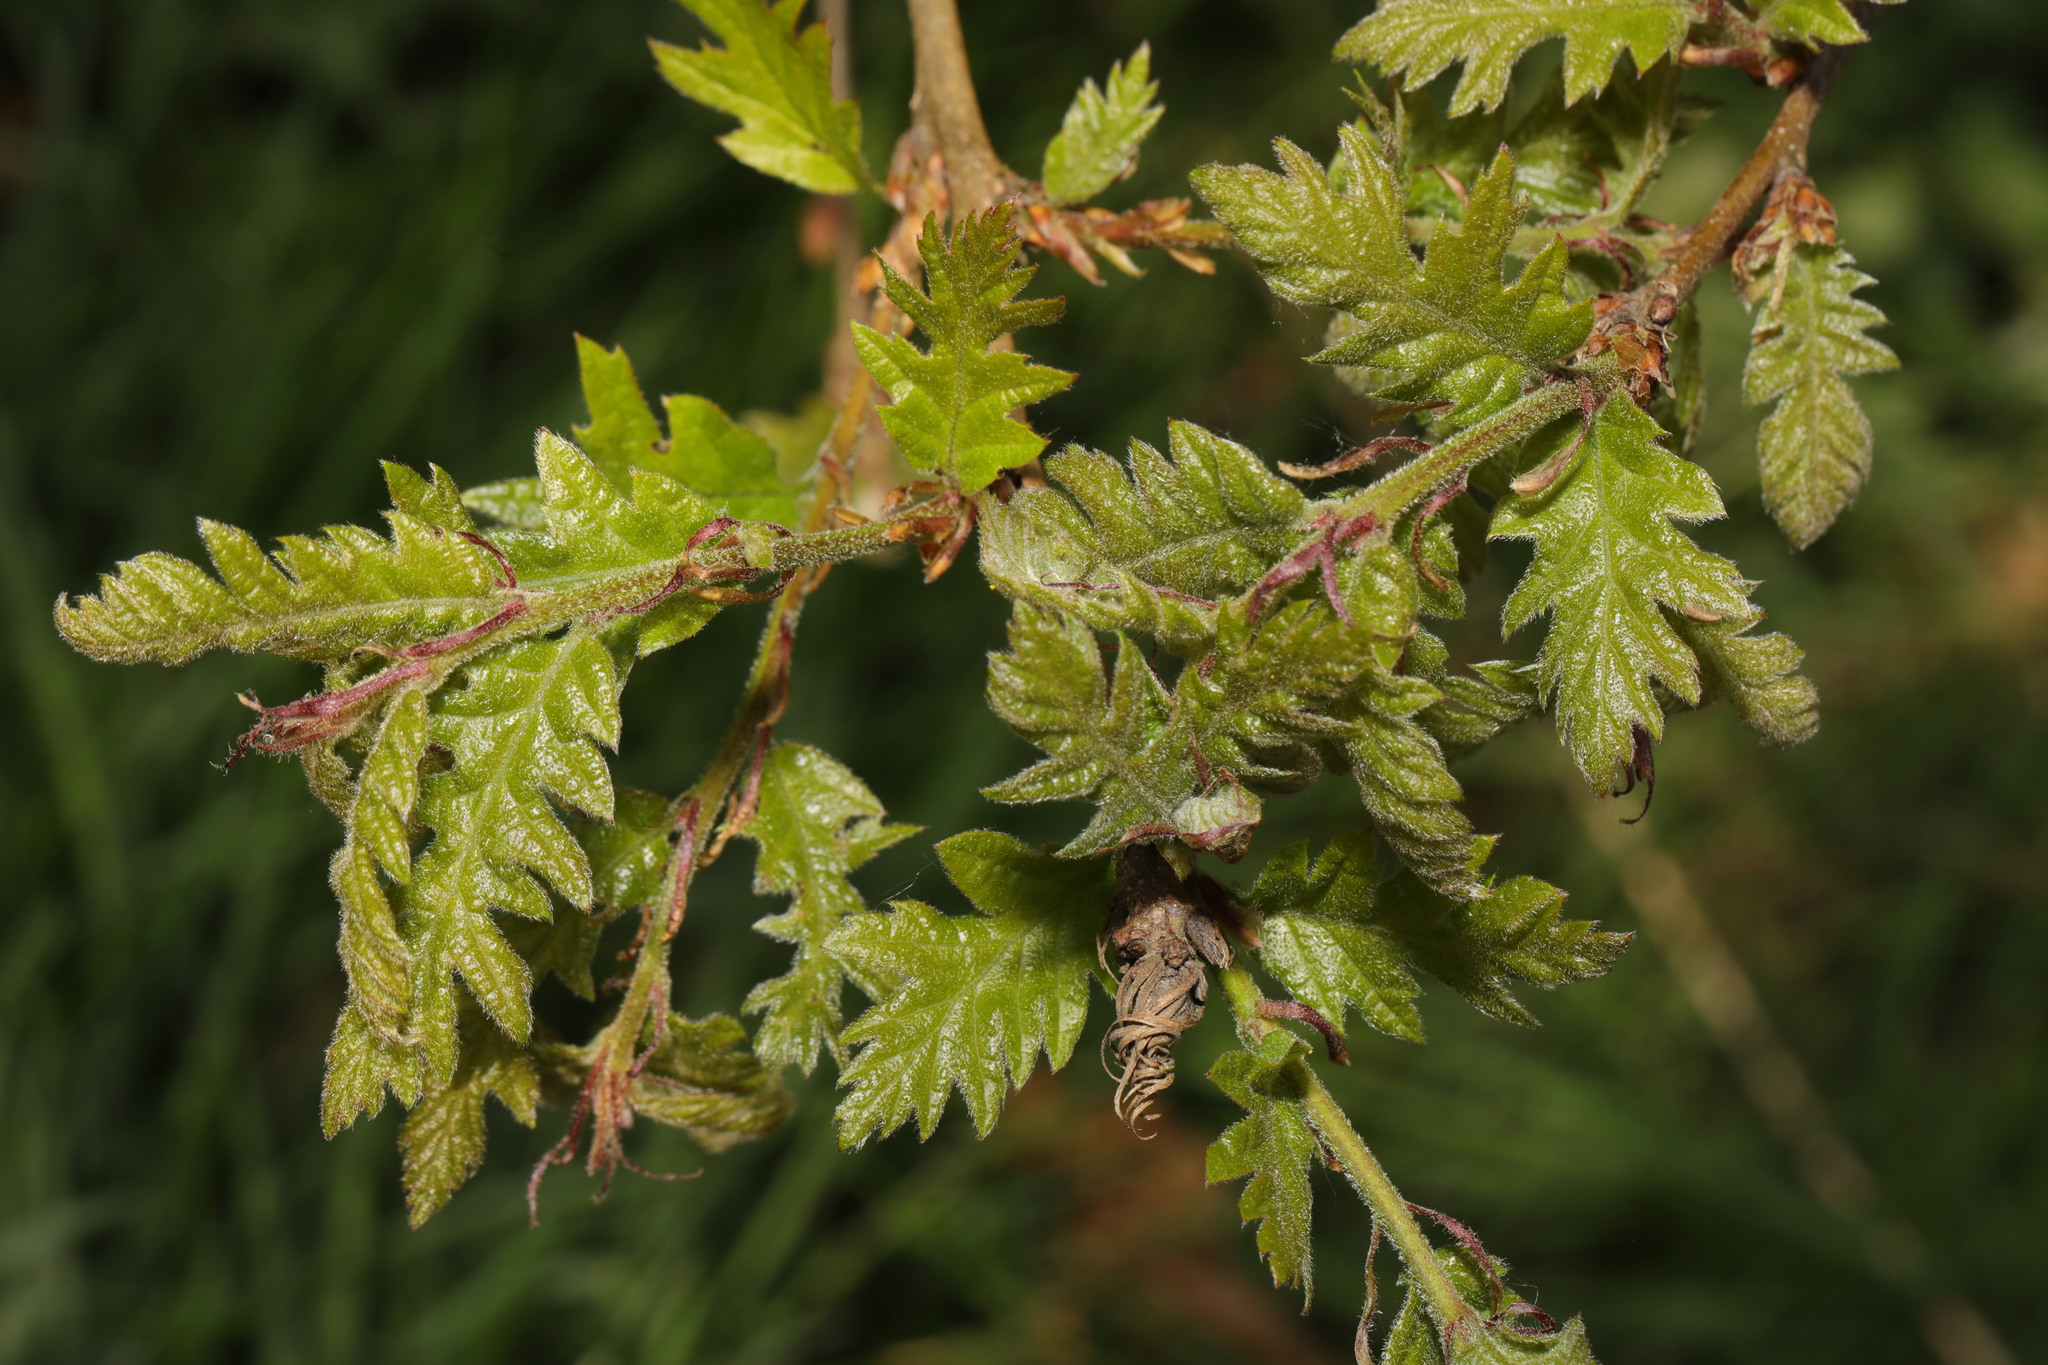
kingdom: Plantae
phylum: Tracheophyta
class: Magnoliopsida
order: Fagales
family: Fagaceae
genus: Quercus
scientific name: Quercus cerris
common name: Turkey oak
